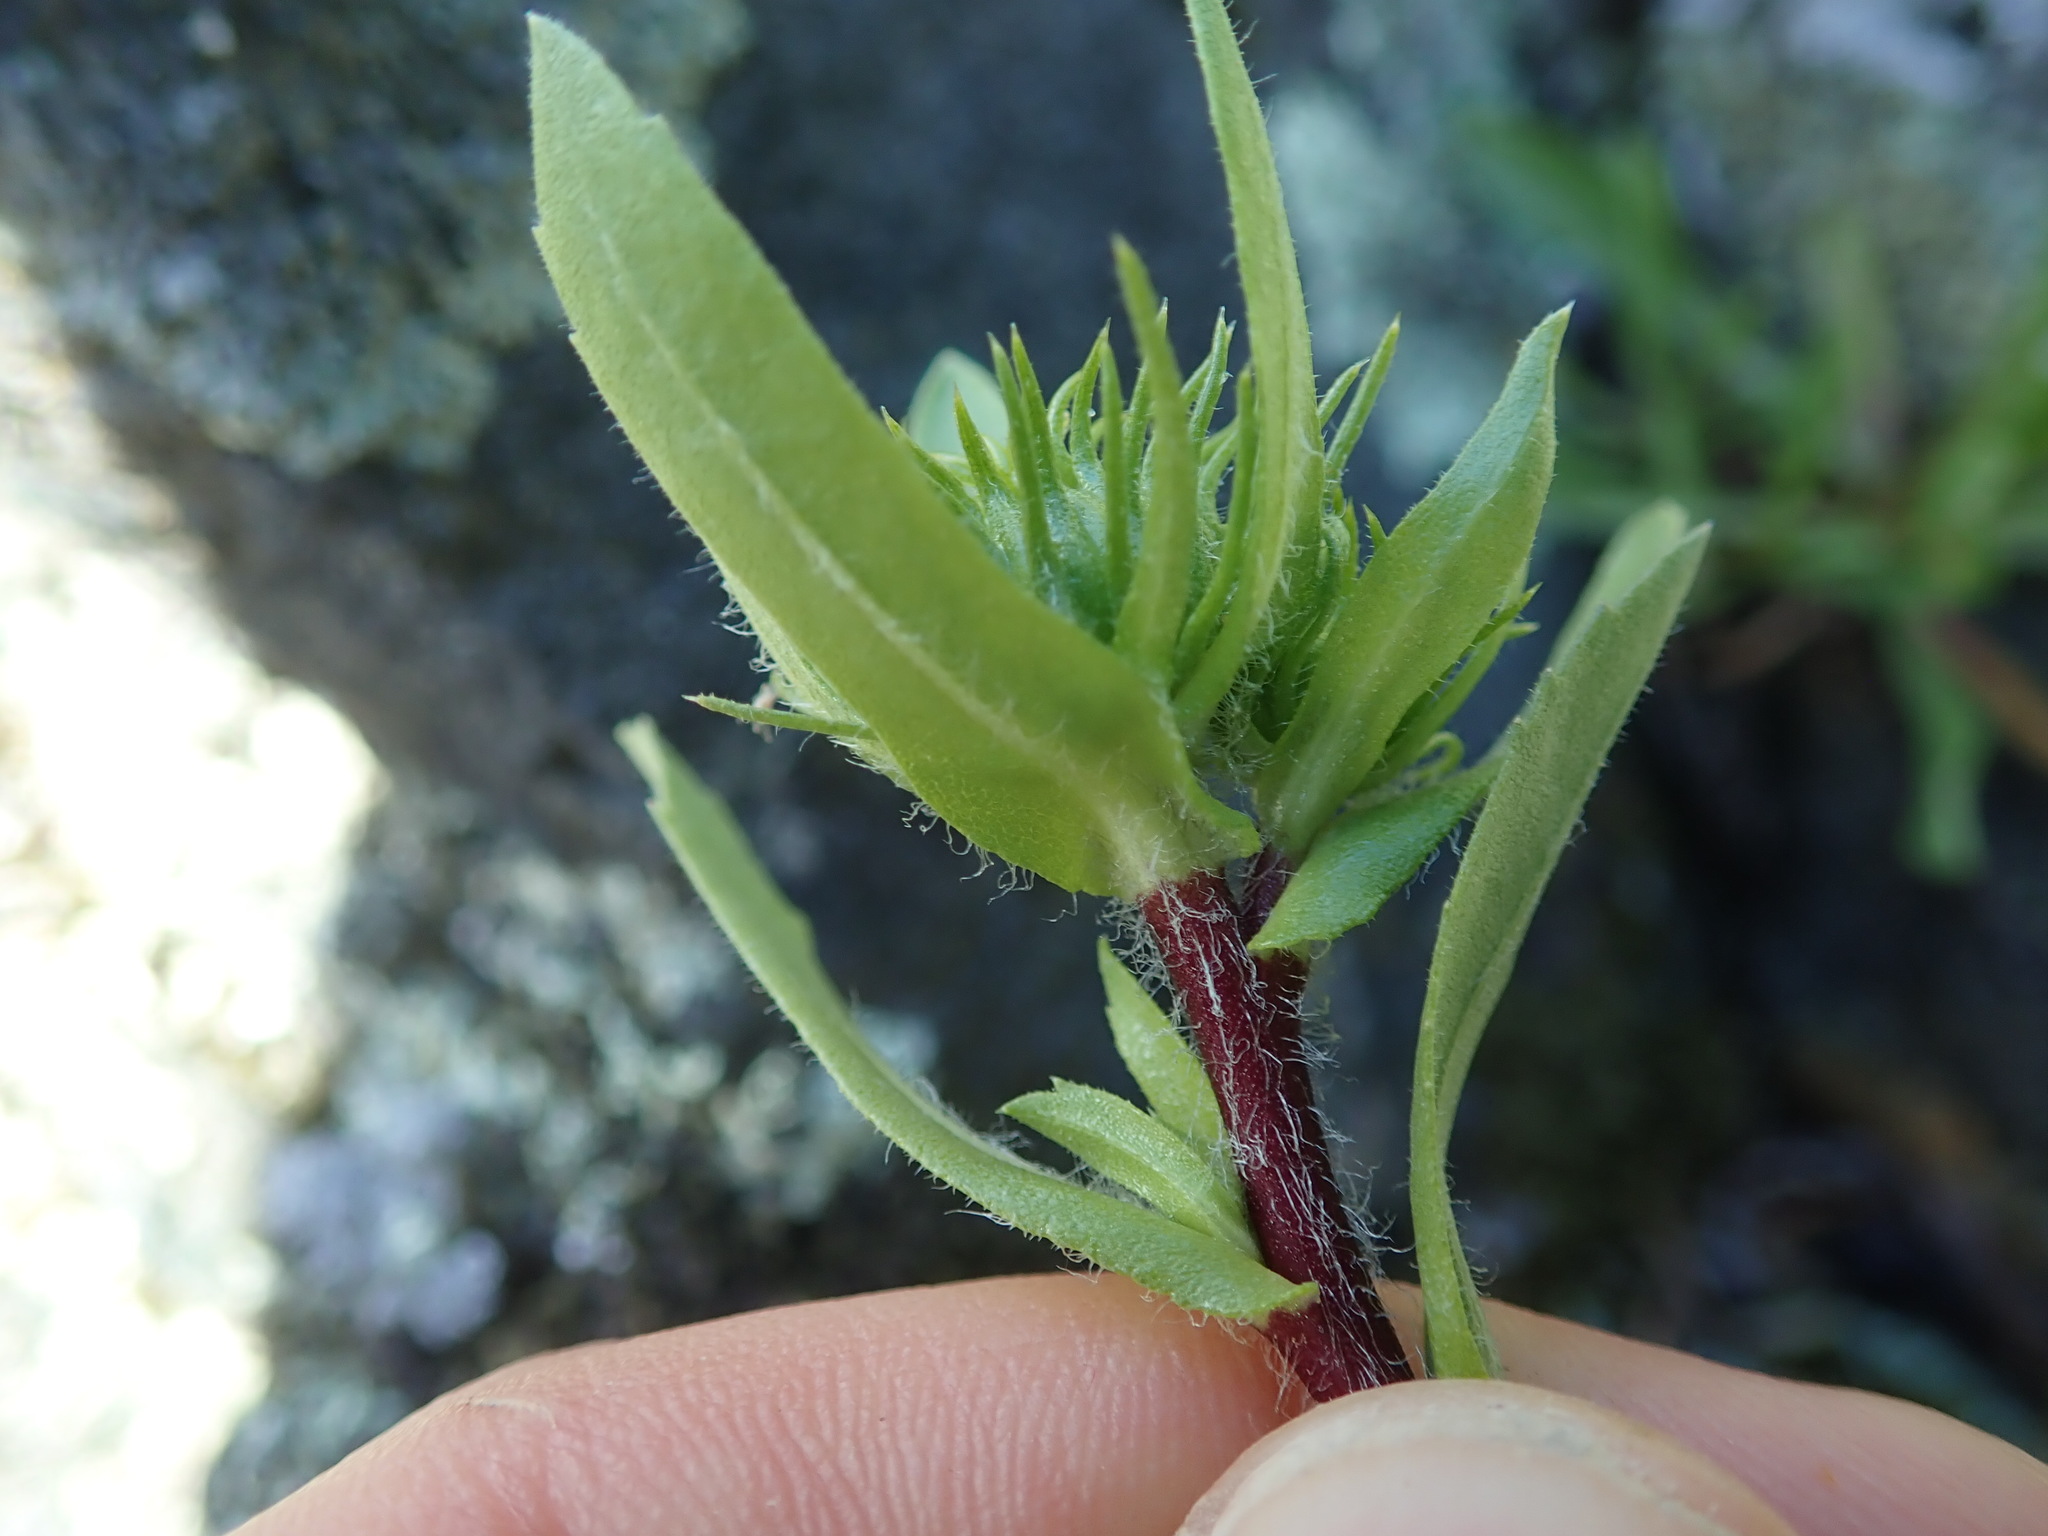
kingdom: Plantae
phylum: Tracheophyta
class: Magnoliopsida
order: Asterales
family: Asteraceae
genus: Grindelia
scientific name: Grindelia hirsutula
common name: Hairy gumweed
